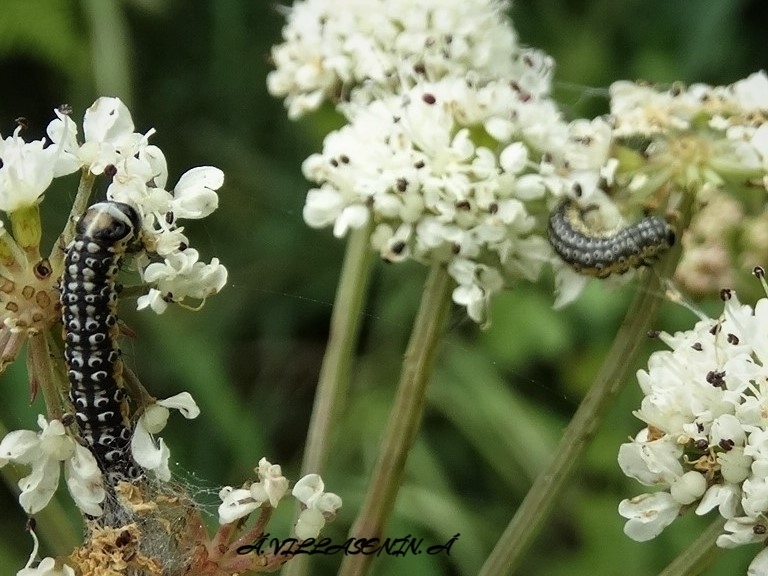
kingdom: Animalia
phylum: Arthropoda
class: Insecta
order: Lepidoptera
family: Depressariidae
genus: Depressaria
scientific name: Depressaria apiella
